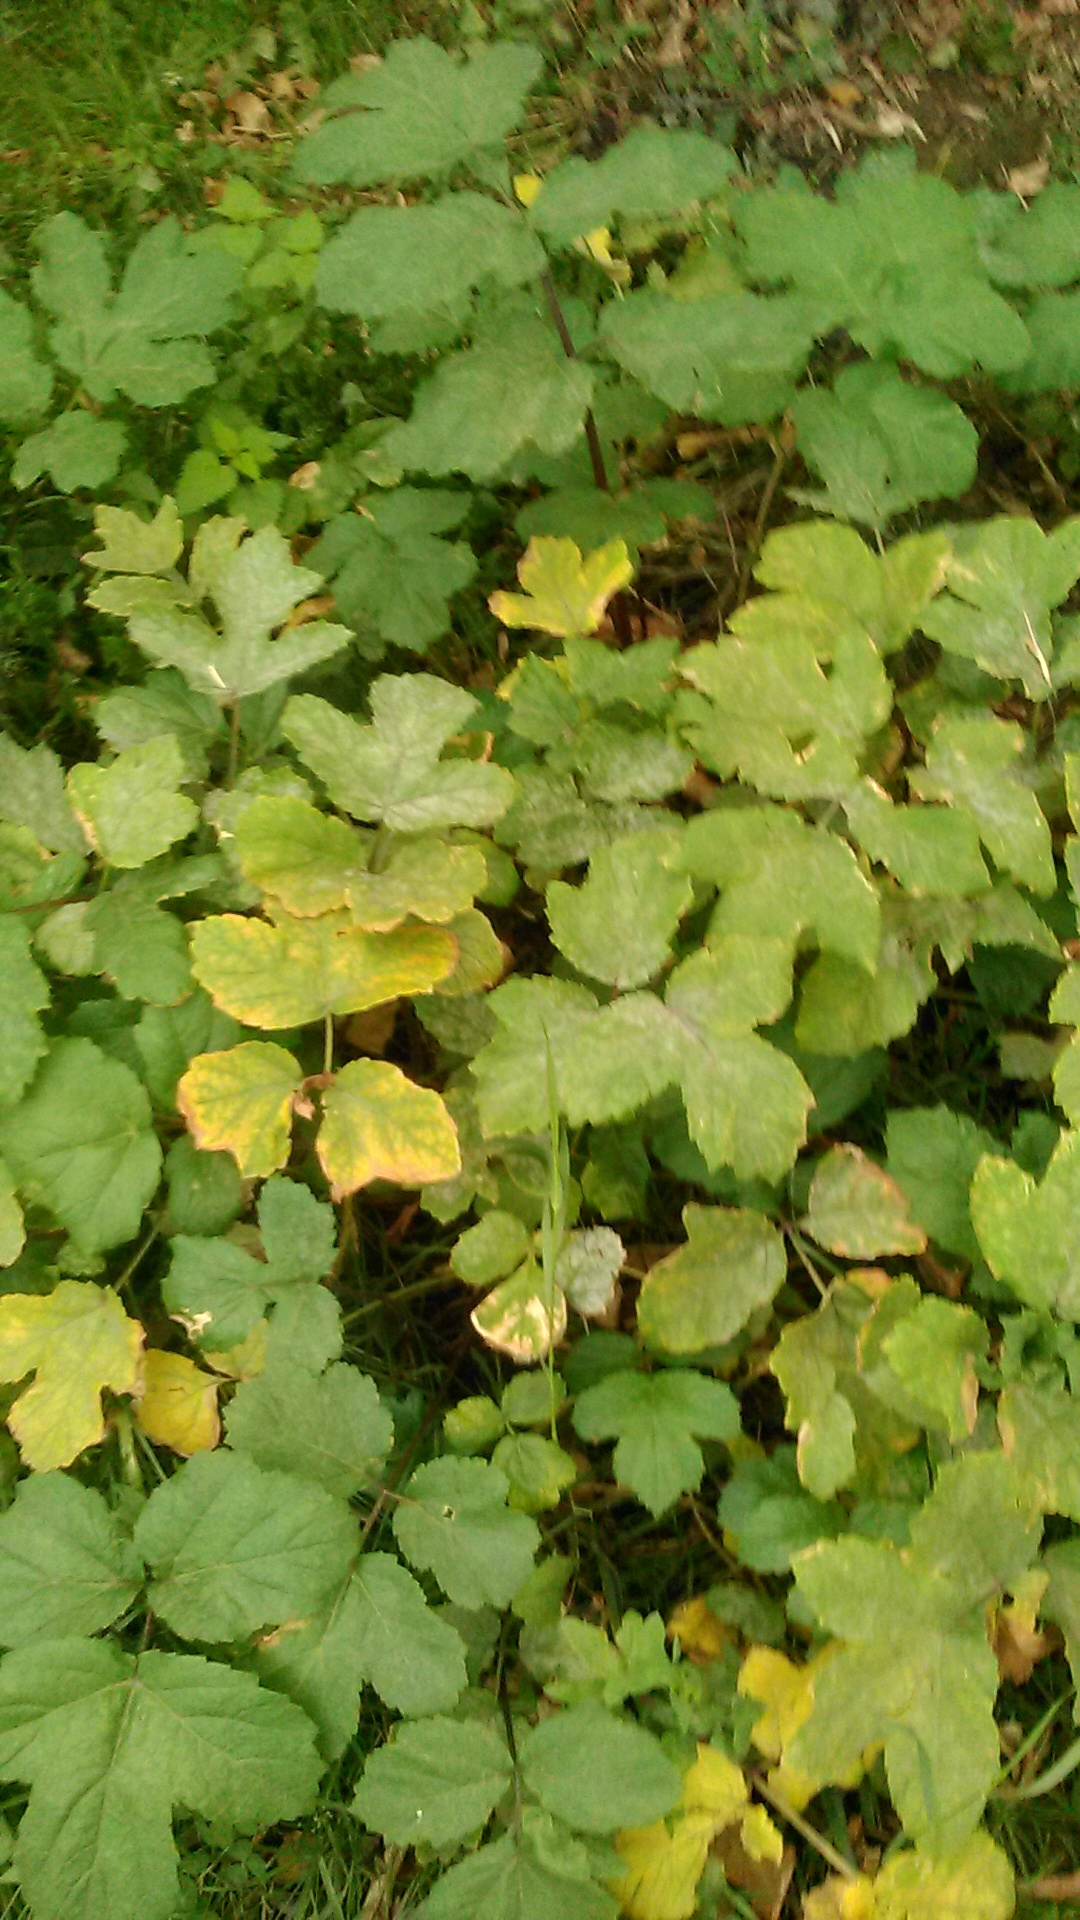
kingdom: Plantae
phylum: Tracheophyta
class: Magnoliopsida
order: Apiales
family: Apiaceae
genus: Heracleum
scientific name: Heracleum sosnowskyi
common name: Sosnowsky's hogweed
